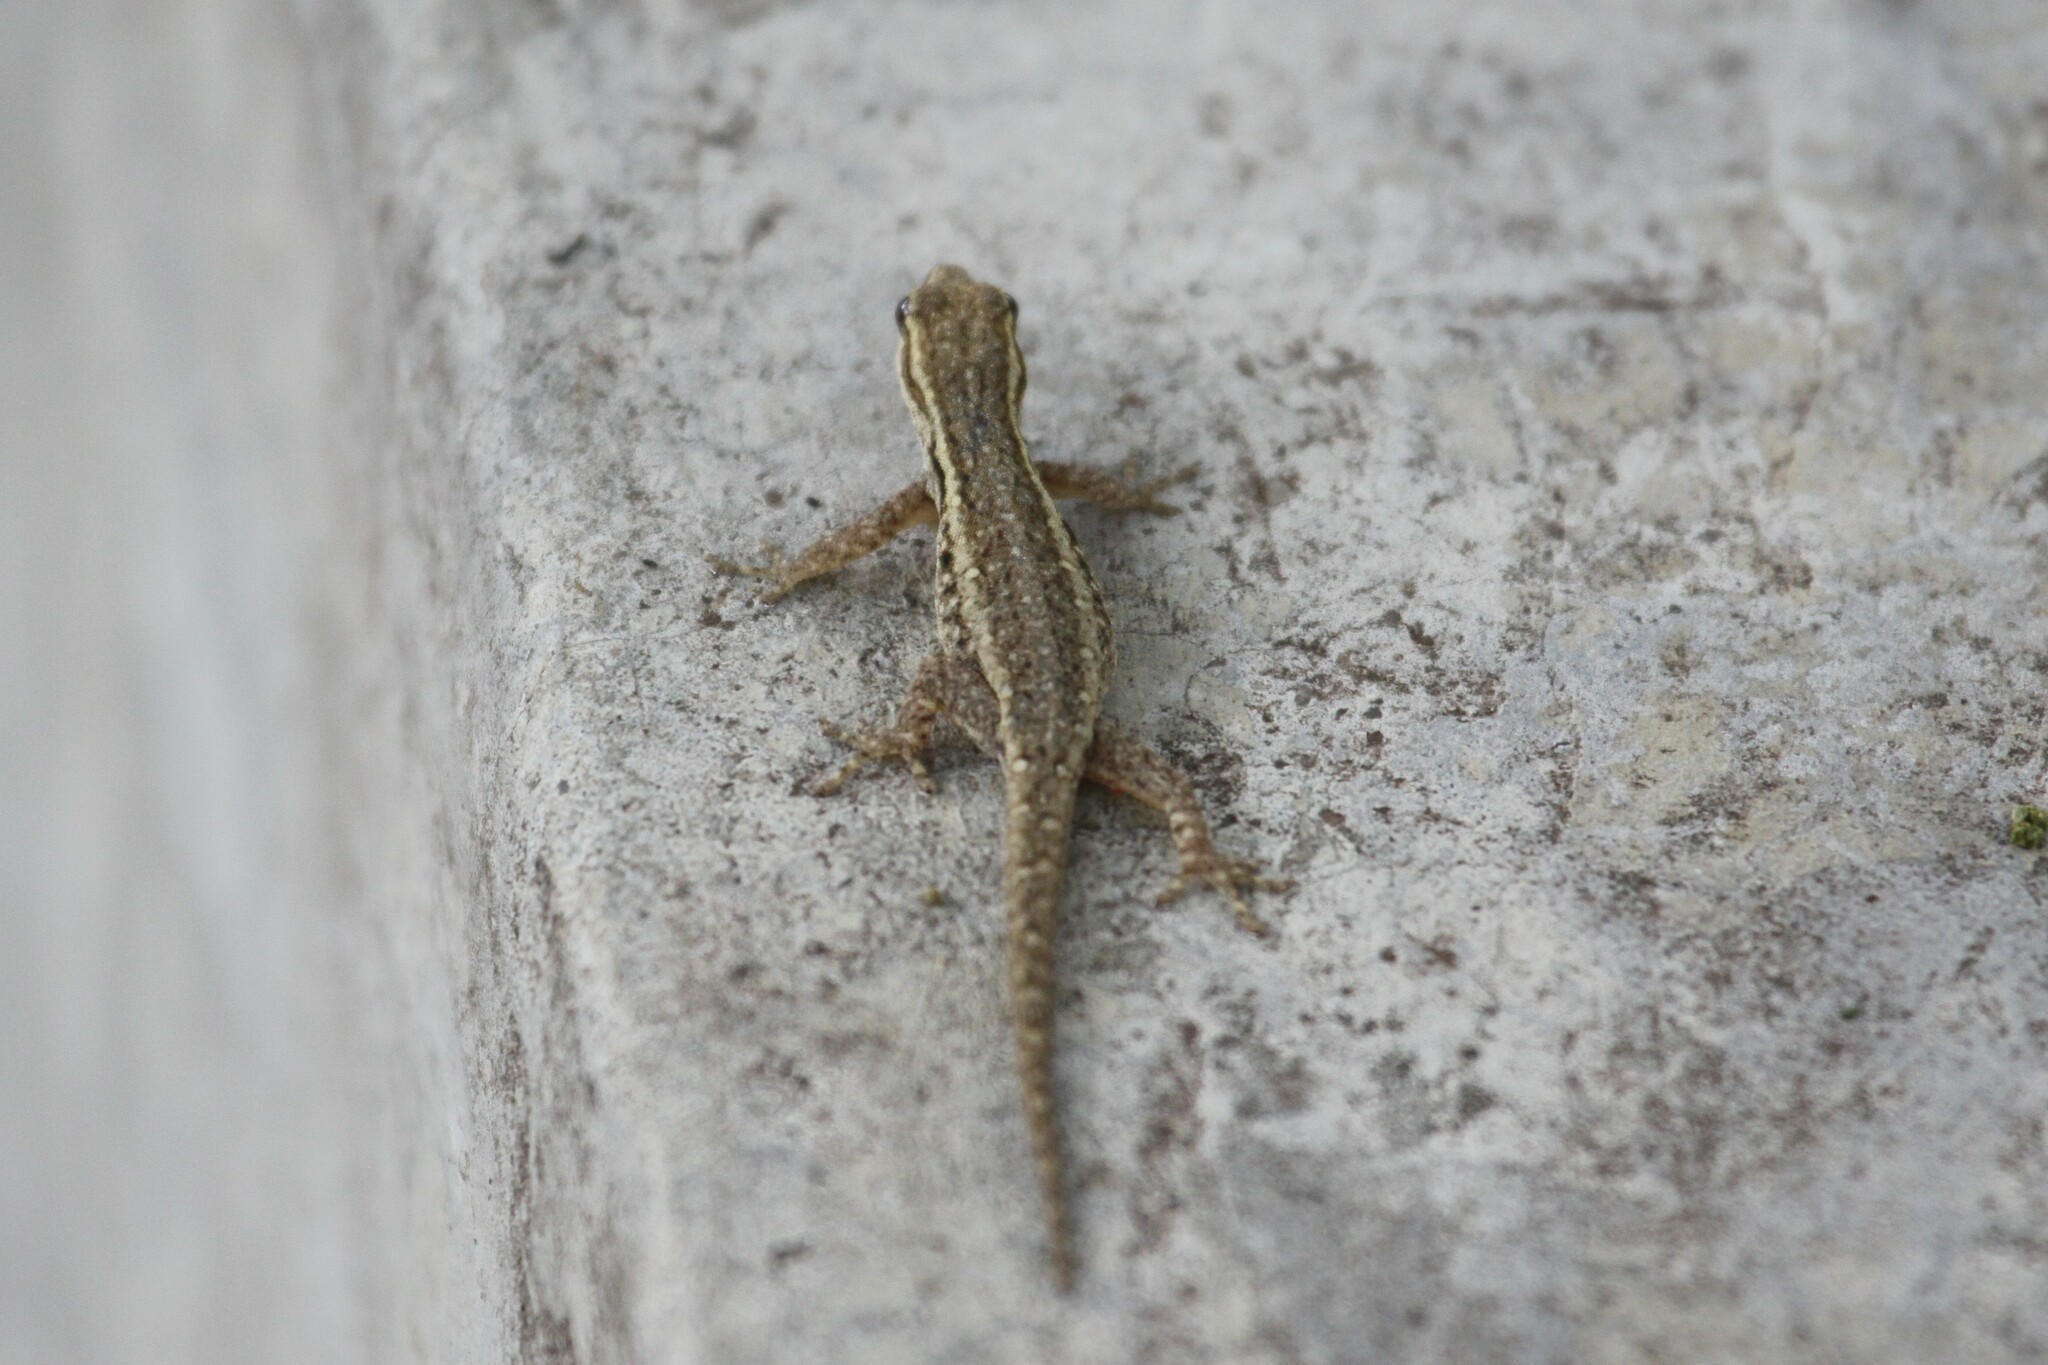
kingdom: Animalia
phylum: Chordata
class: Squamata
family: Gekkonidae
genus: Lygodactylus
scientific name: Lygodactylus capensis
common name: Cape dwarf gecko
